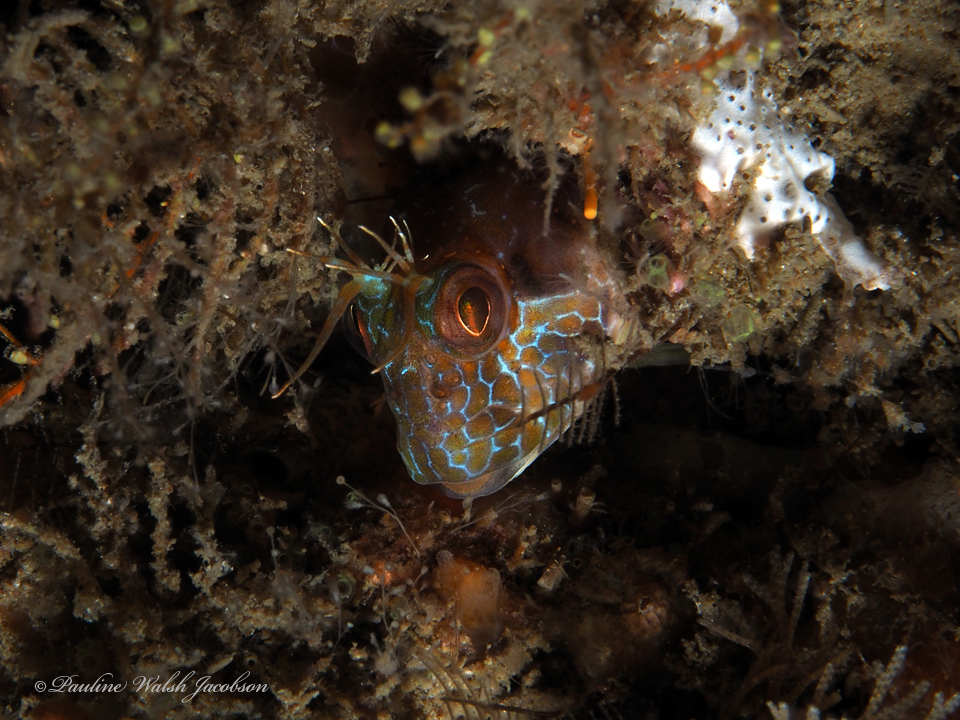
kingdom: Animalia
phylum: Chordata
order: Perciformes
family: Blenniidae
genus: Parablennius
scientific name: Parablennius marmoreus
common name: Seaweed blenny
